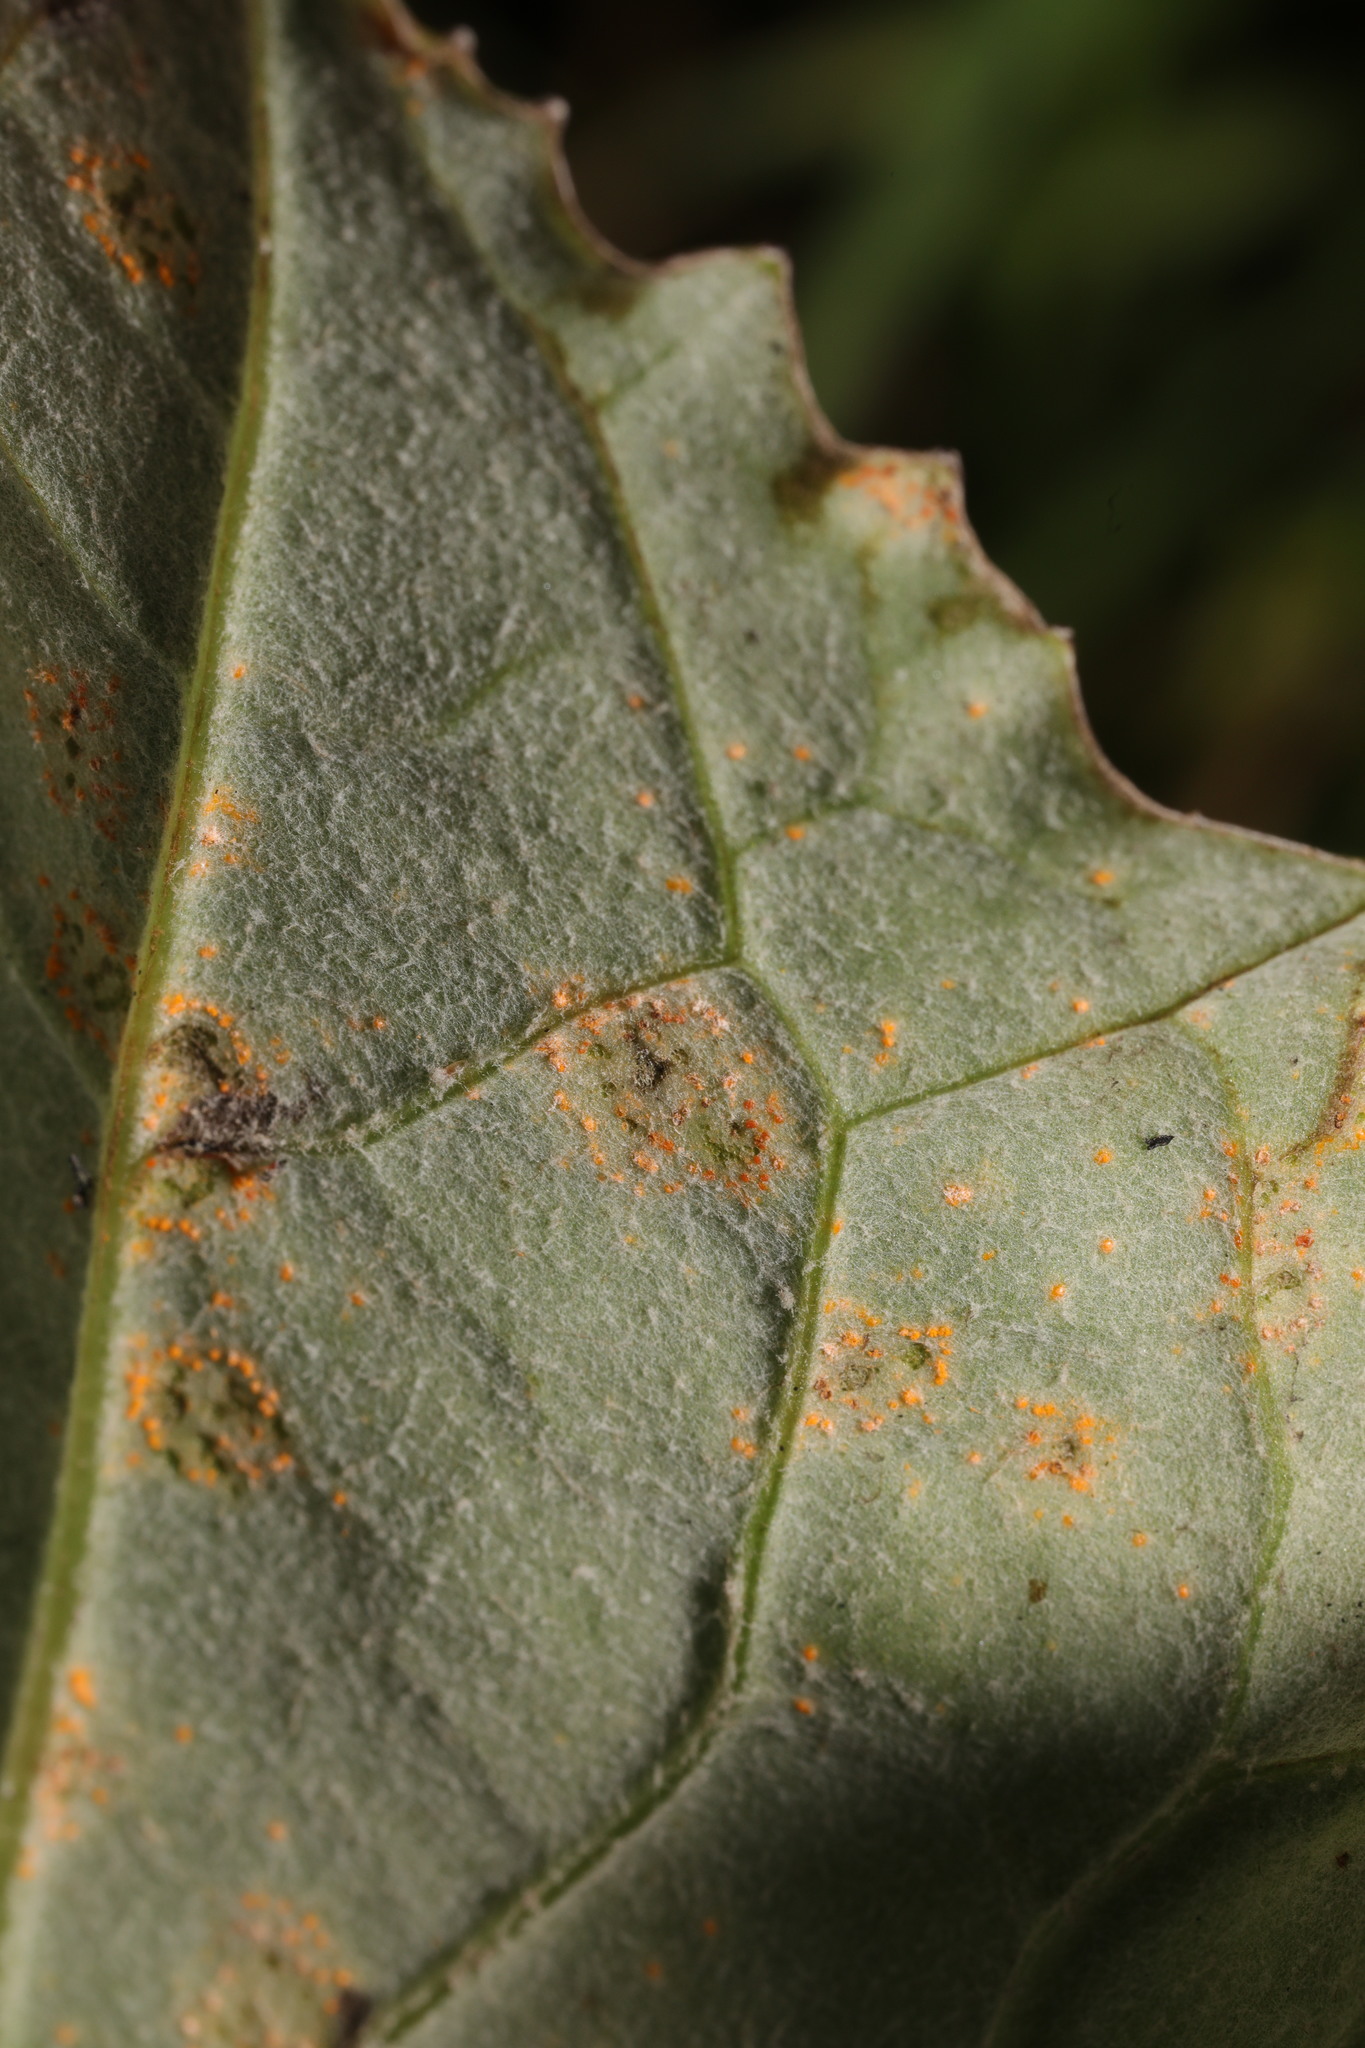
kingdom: Fungi
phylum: Basidiomycota
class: Pucciniomycetes
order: Pucciniales
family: Coleosporiaceae
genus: Coleosporium
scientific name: Coleosporium tussilaginis
